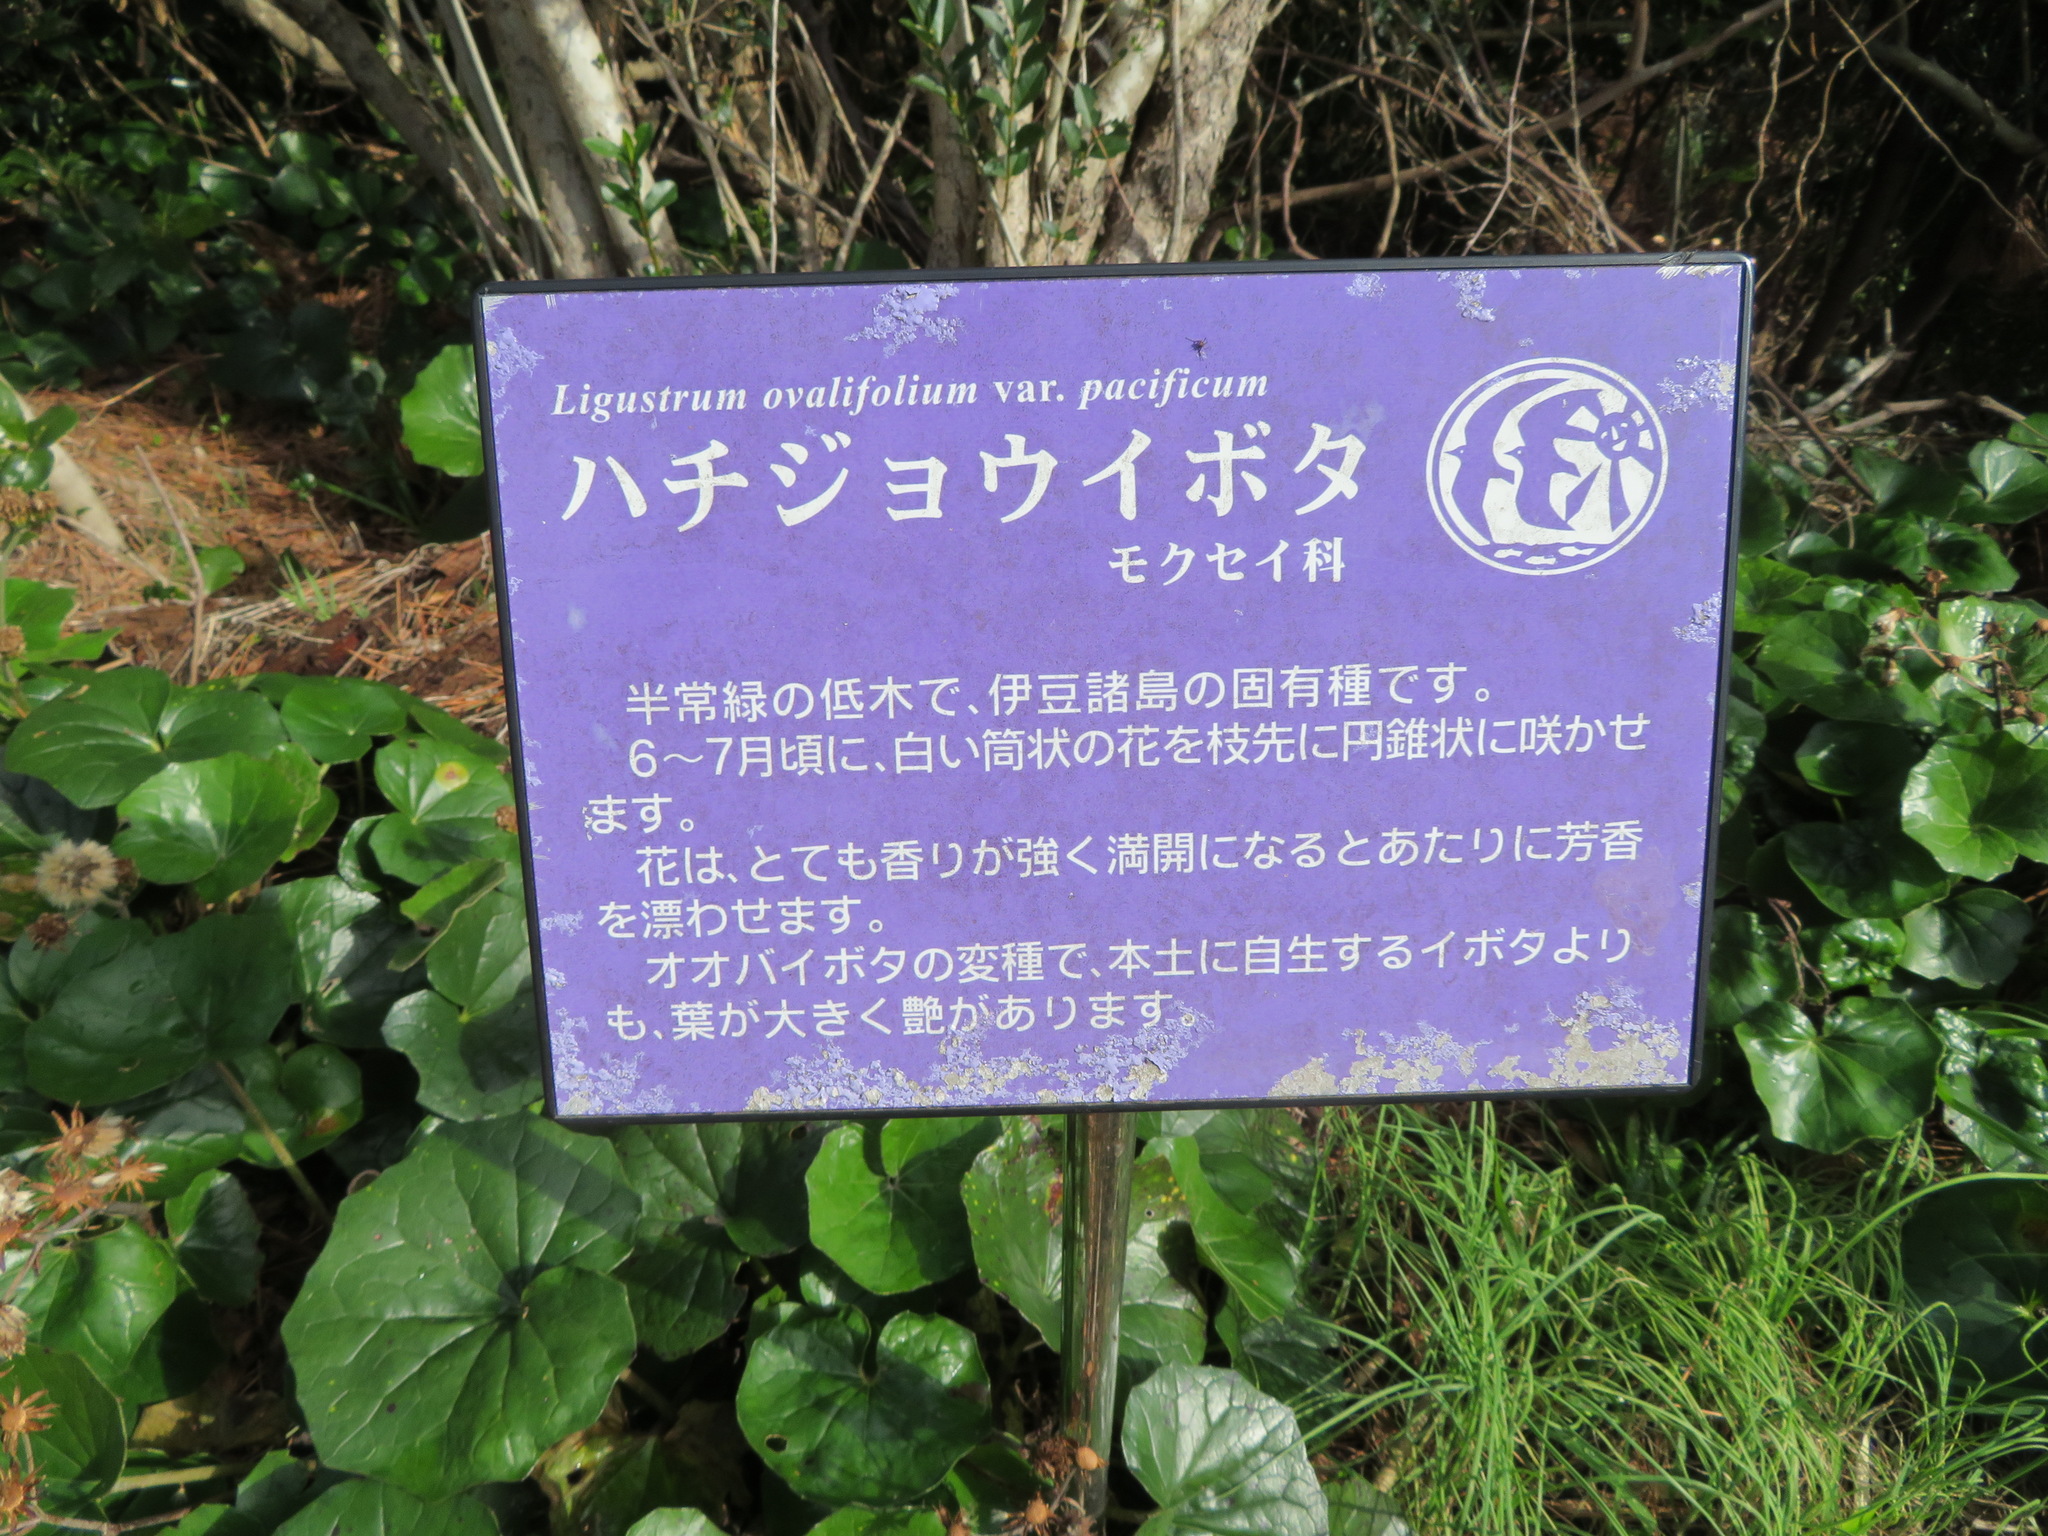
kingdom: Plantae
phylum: Tracheophyta
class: Magnoliopsida
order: Lamiales
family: Oleaceae
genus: Ligustrum
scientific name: Ligustrum ovalifolium
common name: California privet
